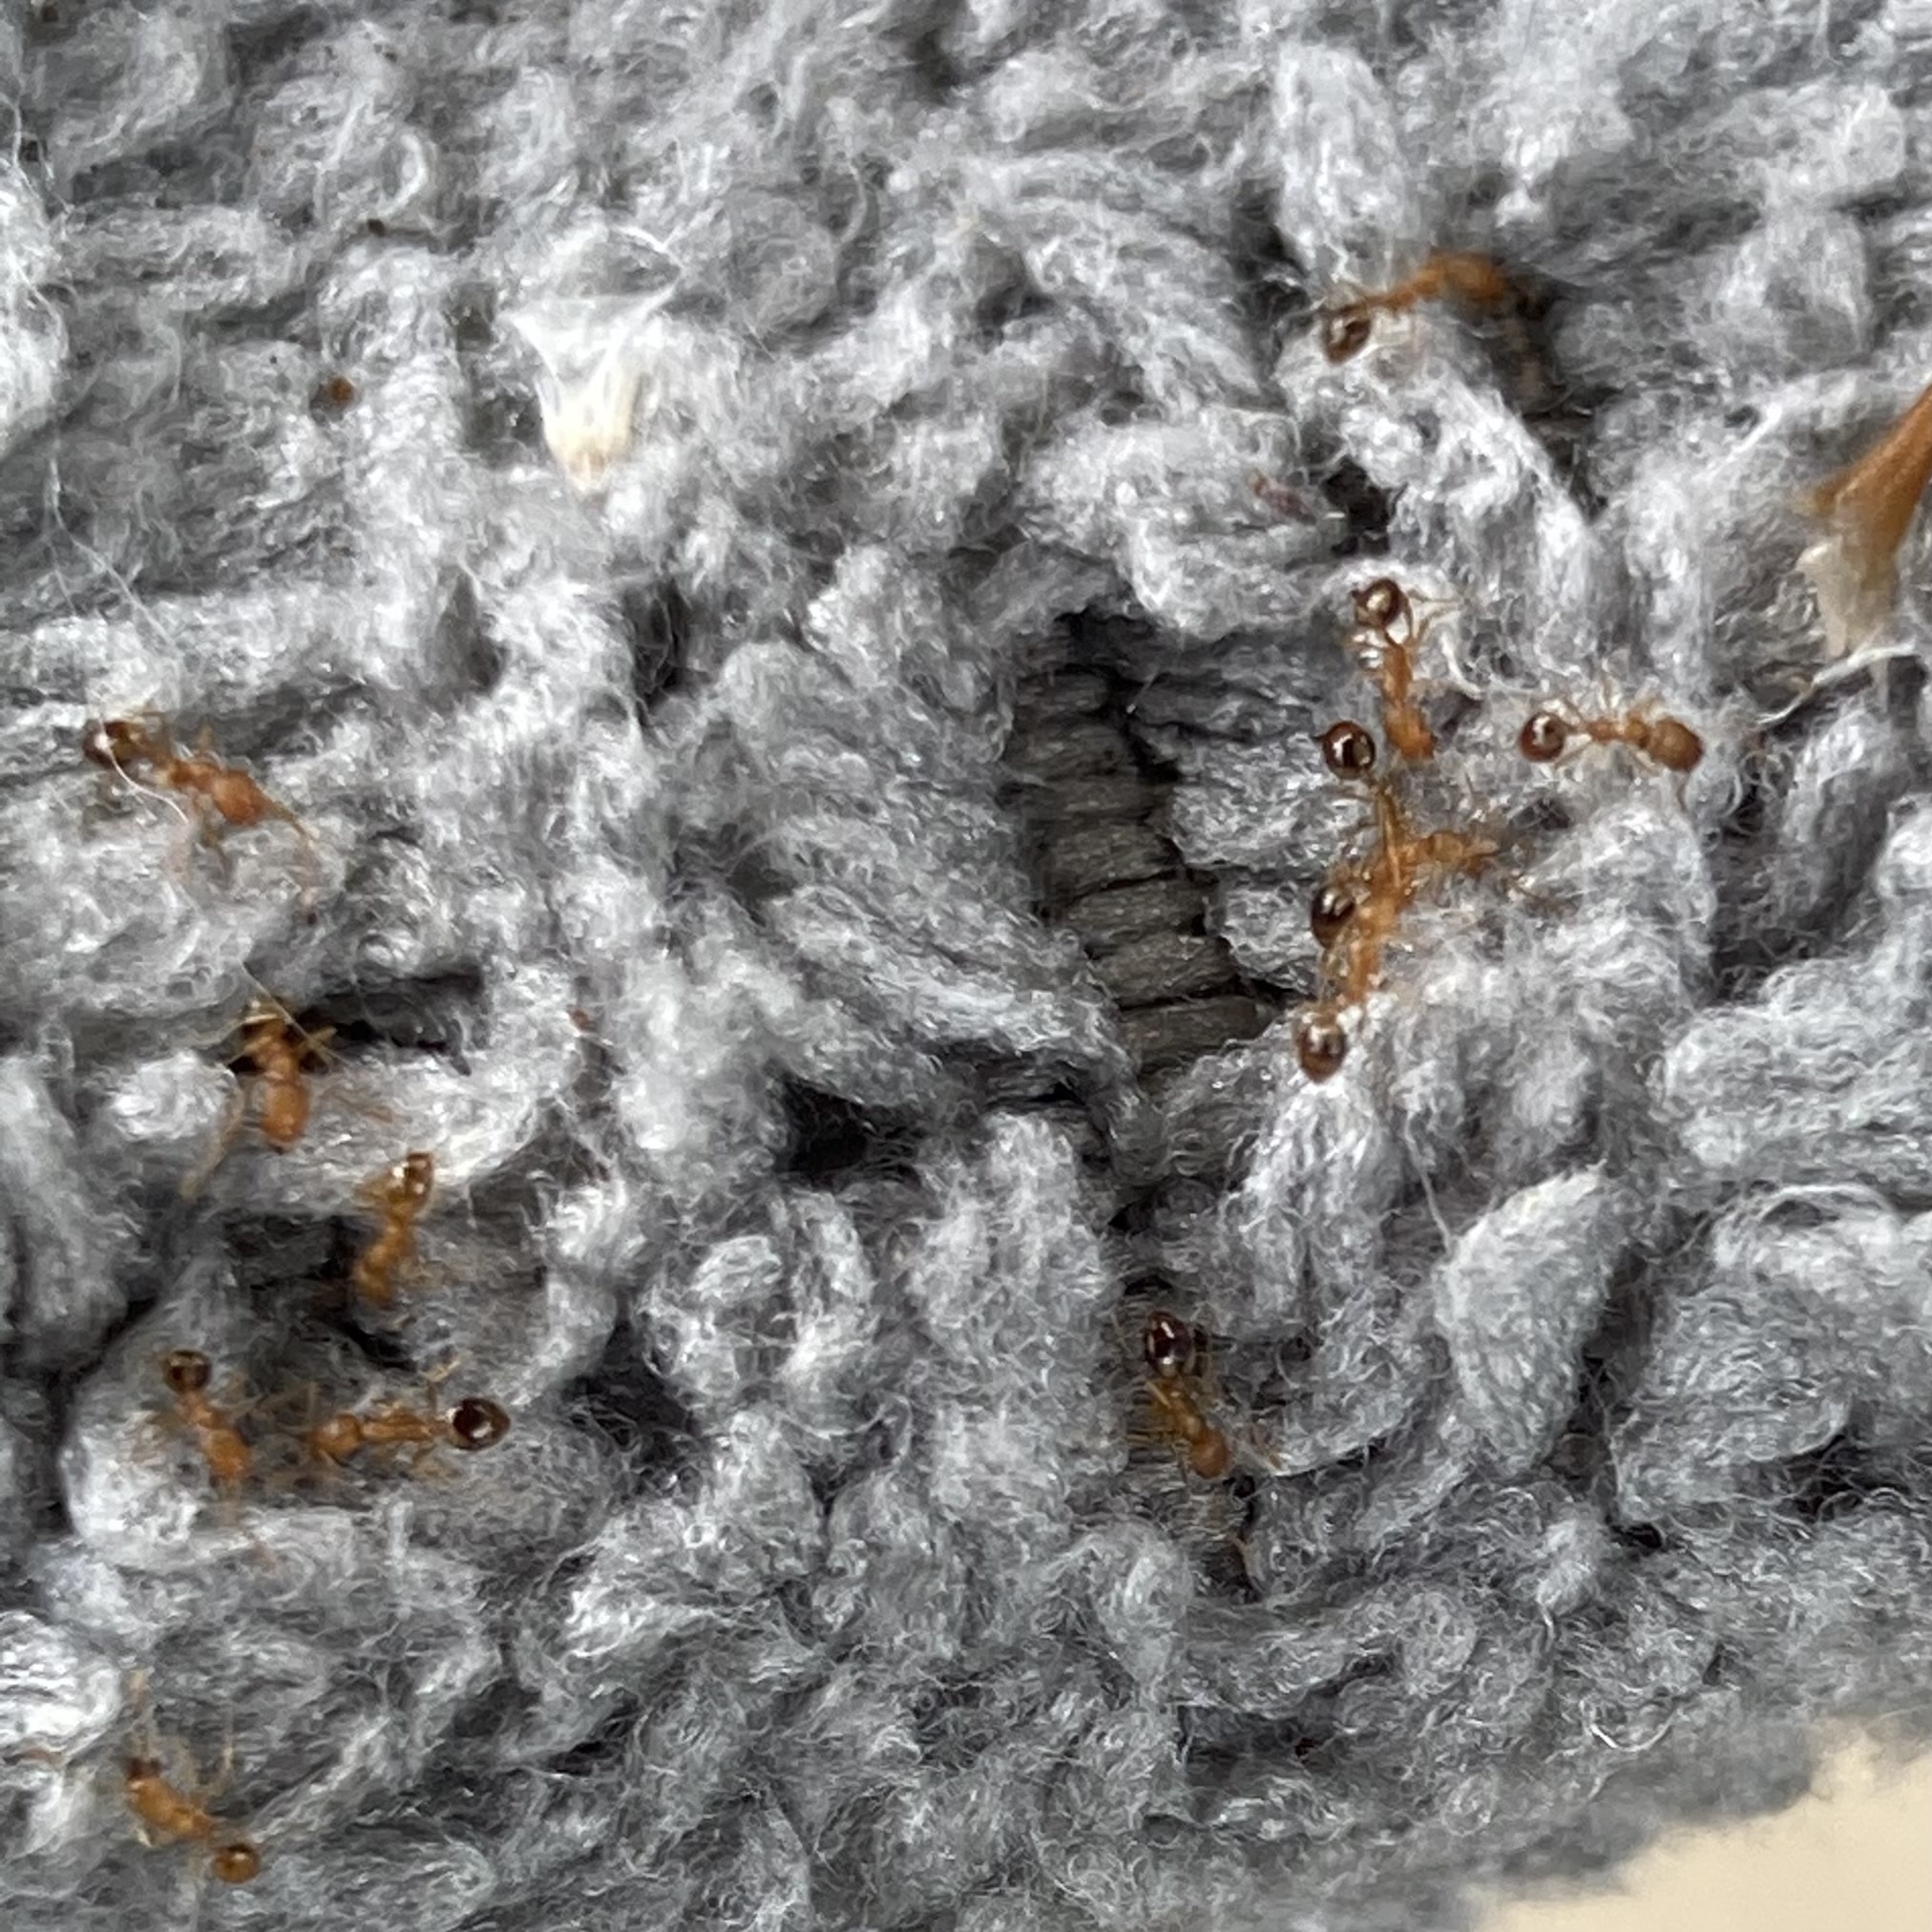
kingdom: Animalia
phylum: Arthropoda
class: Insecta
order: Hymenoptera
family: Formicidae
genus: Monomorium
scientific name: Monomorium pharaonis
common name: Pharaoh ant
